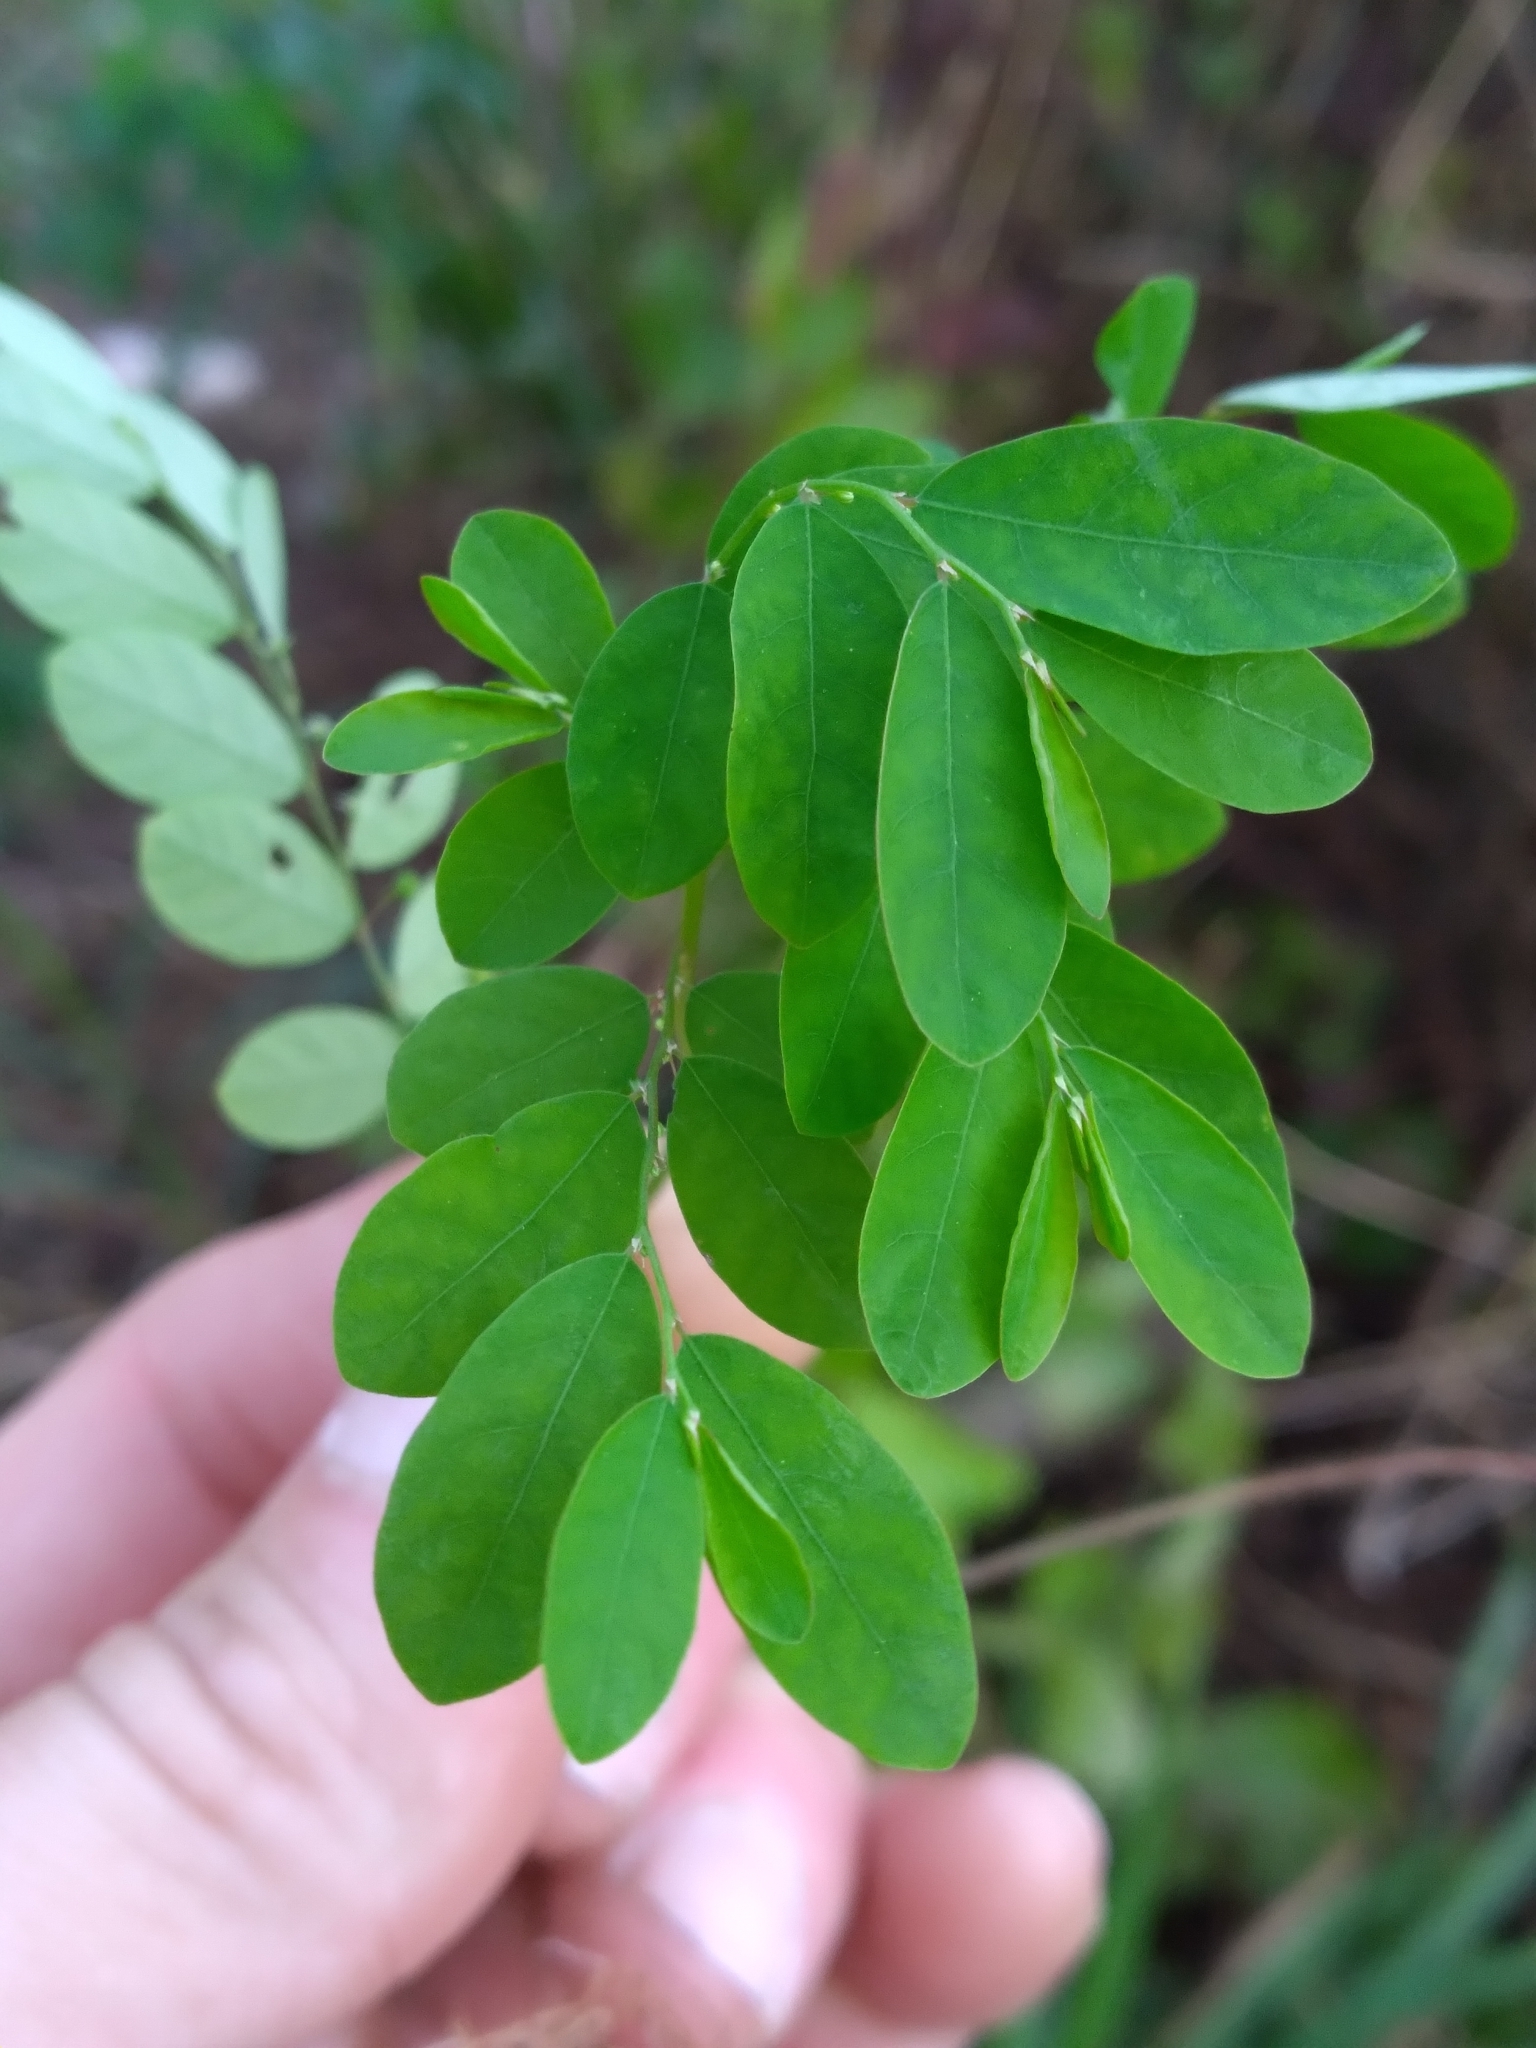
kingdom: Plantae
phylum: Tracheophyta
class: Magnoliopsida
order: Malpighiales
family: Phyllanthaceae
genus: Phyllanthus
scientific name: Phyllanthus tenellus
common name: Mascarene island leaf-flower
